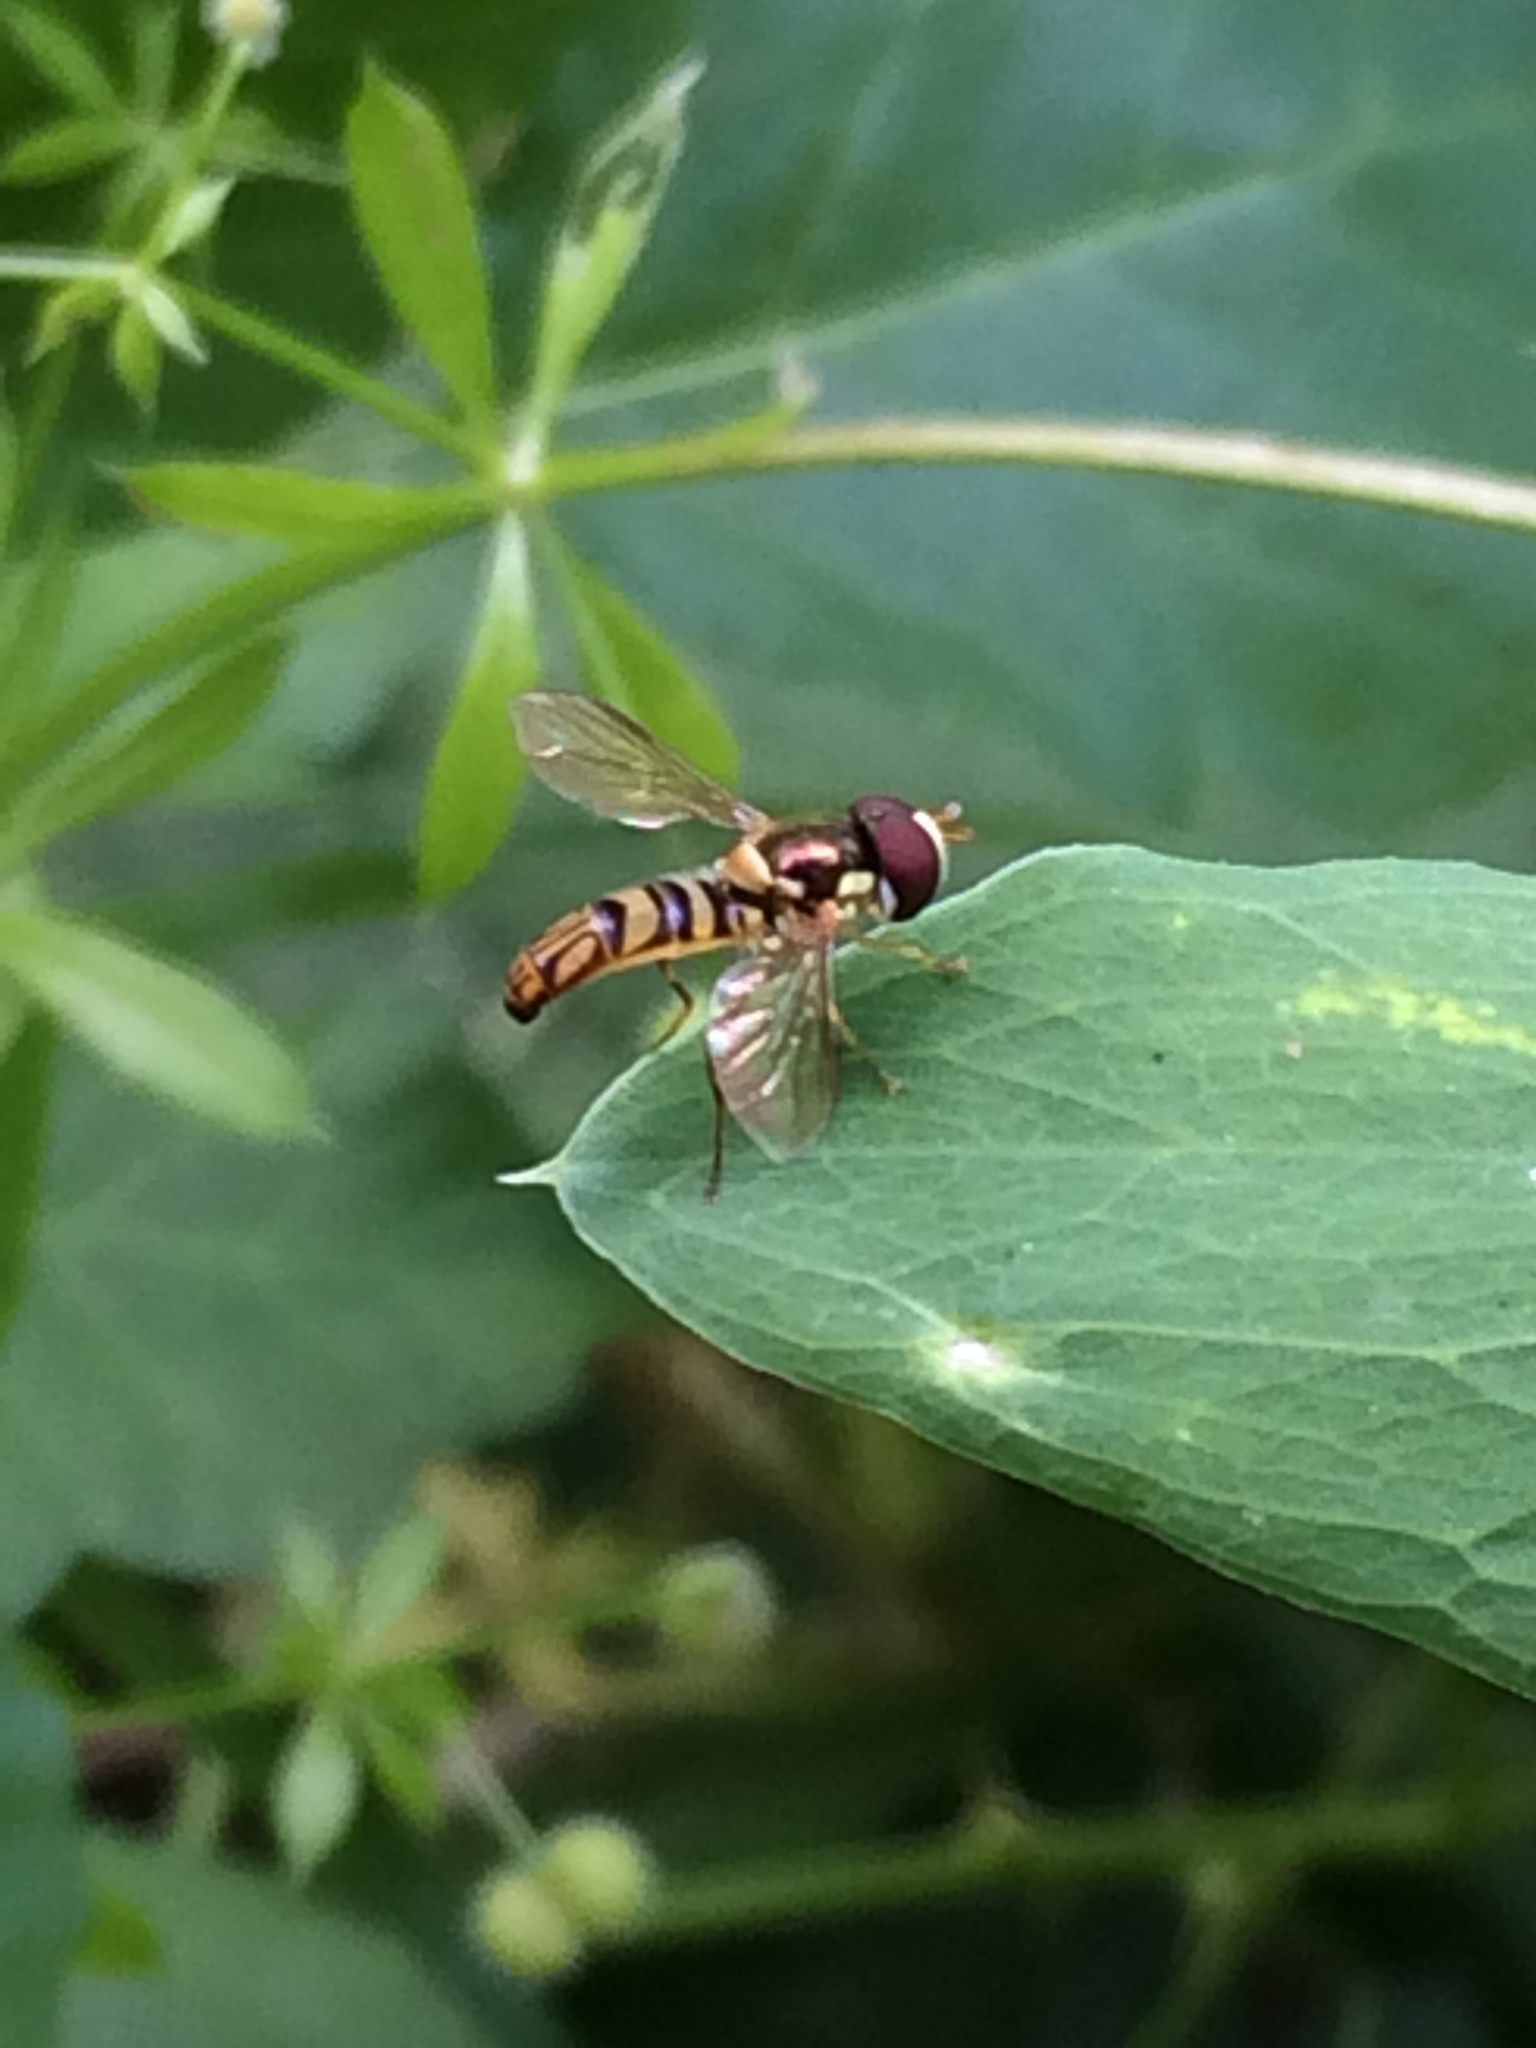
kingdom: Animalia
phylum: Arthropoda
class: Insecta
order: Diptera
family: Syrphidae
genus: Allograpta
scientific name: Allograpta obliqua
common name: Common oblique syrphid
